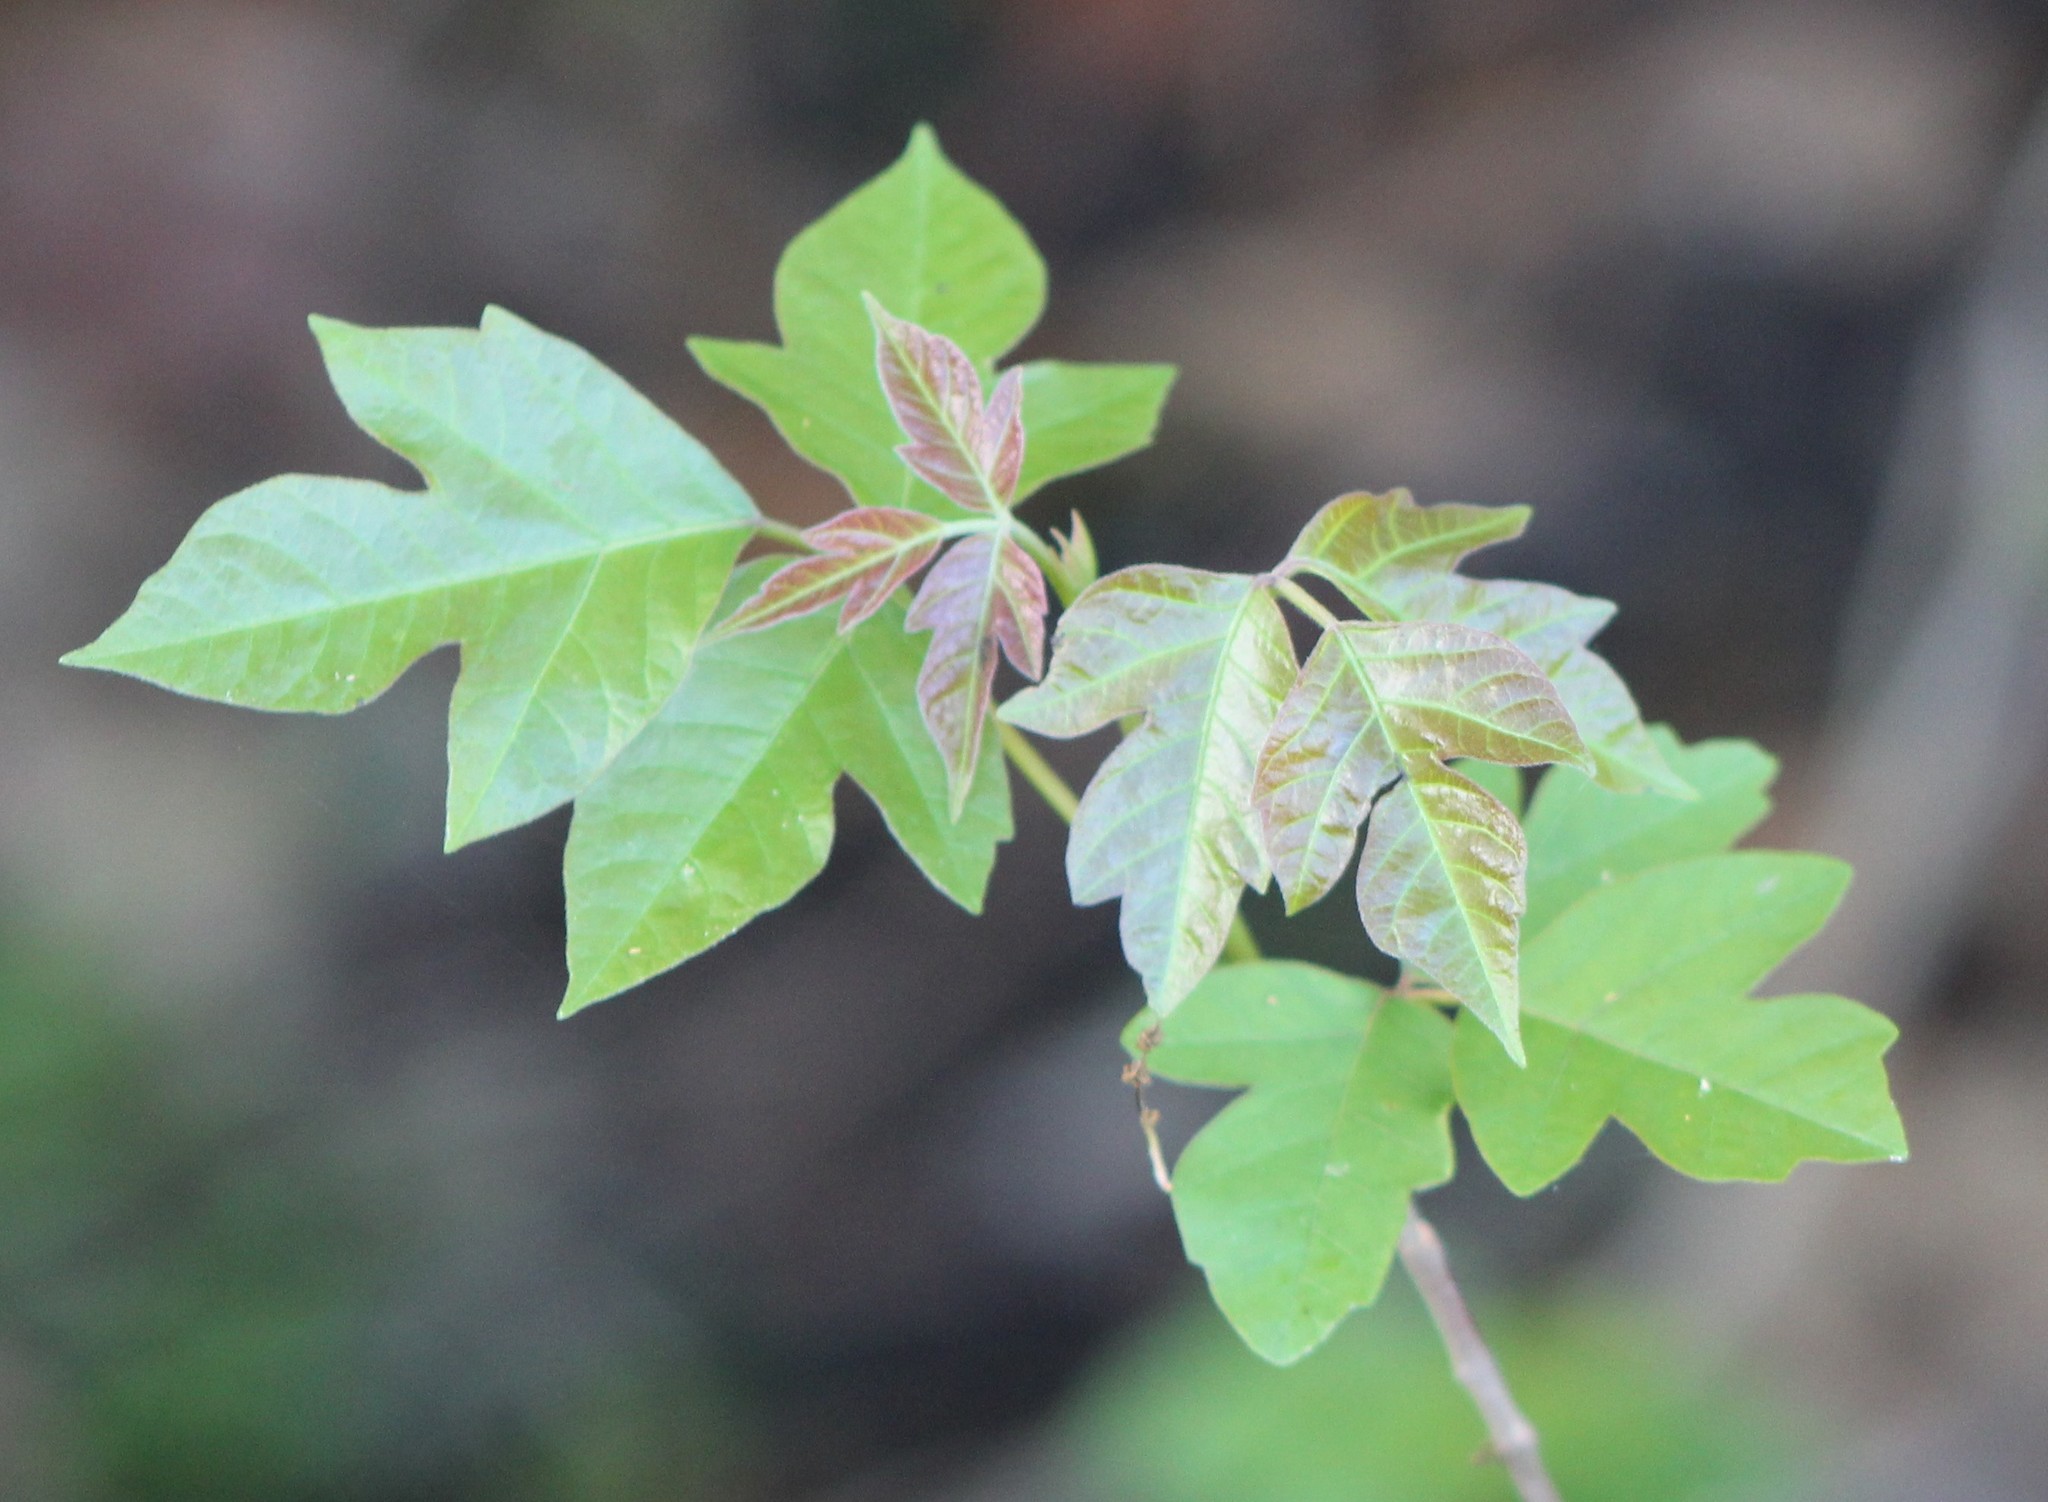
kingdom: Plantae
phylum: Tracheophyta
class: Magnoliopsida
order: Sapindales
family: Anacardiaceae
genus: Toxicodendron
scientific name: Toxicodendron radicans
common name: Poison ivy
